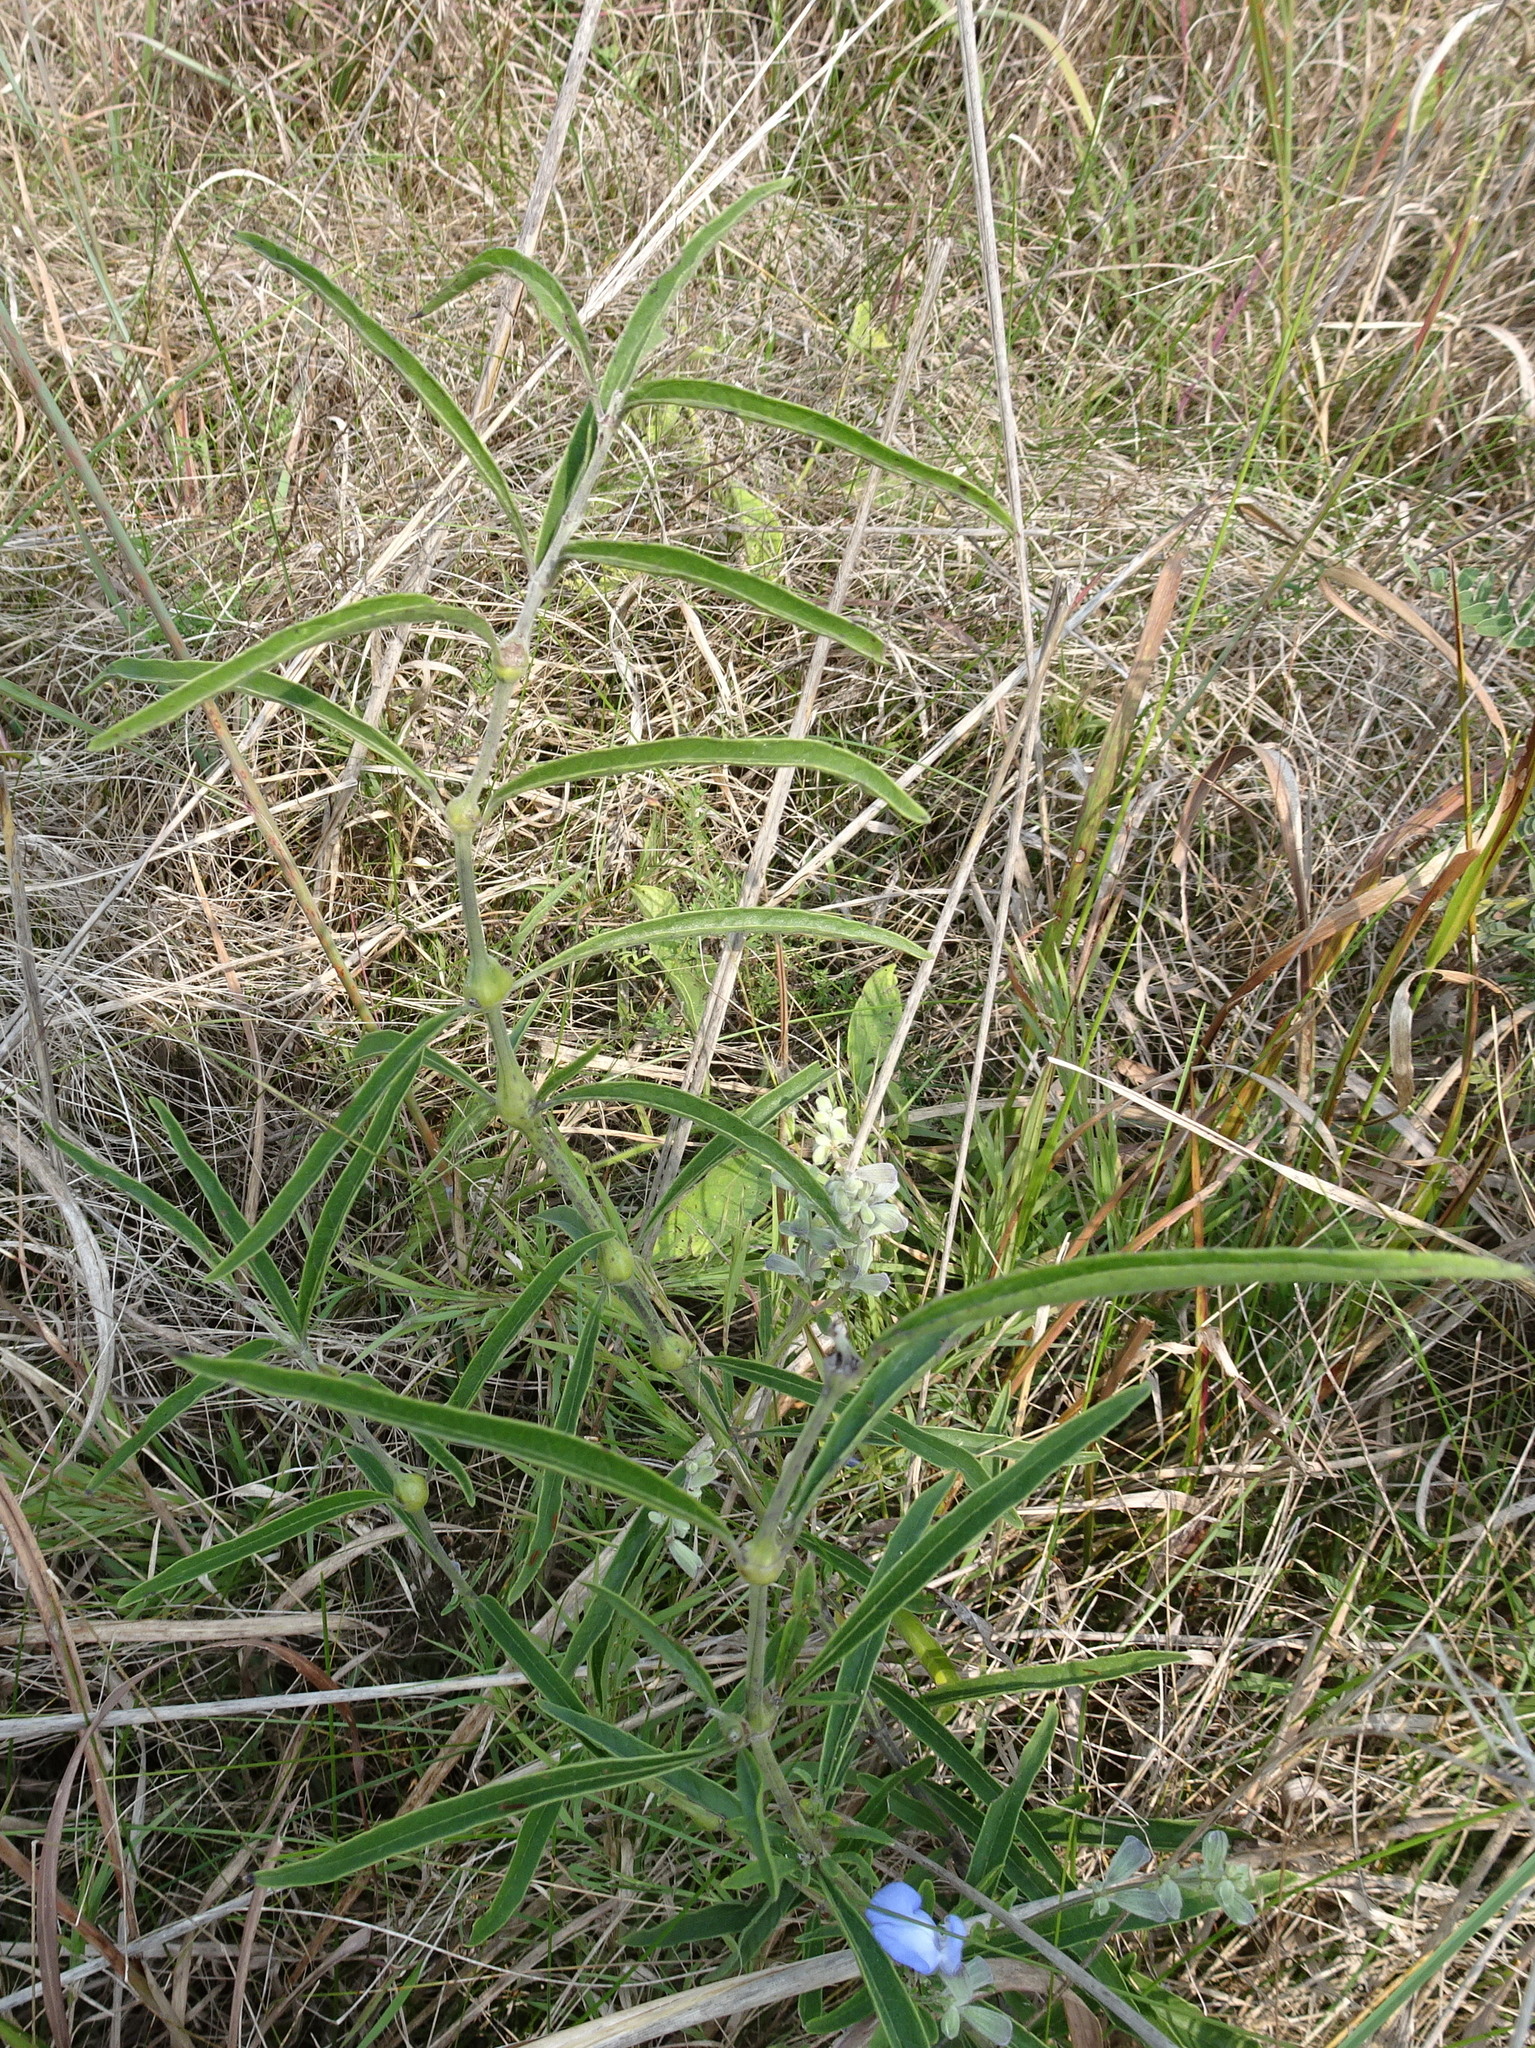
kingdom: Plantae
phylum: Tracheophyta
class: Magnoliopsida
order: Lamiales
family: Lamiaceae
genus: Salvia
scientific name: Salvia azurea
